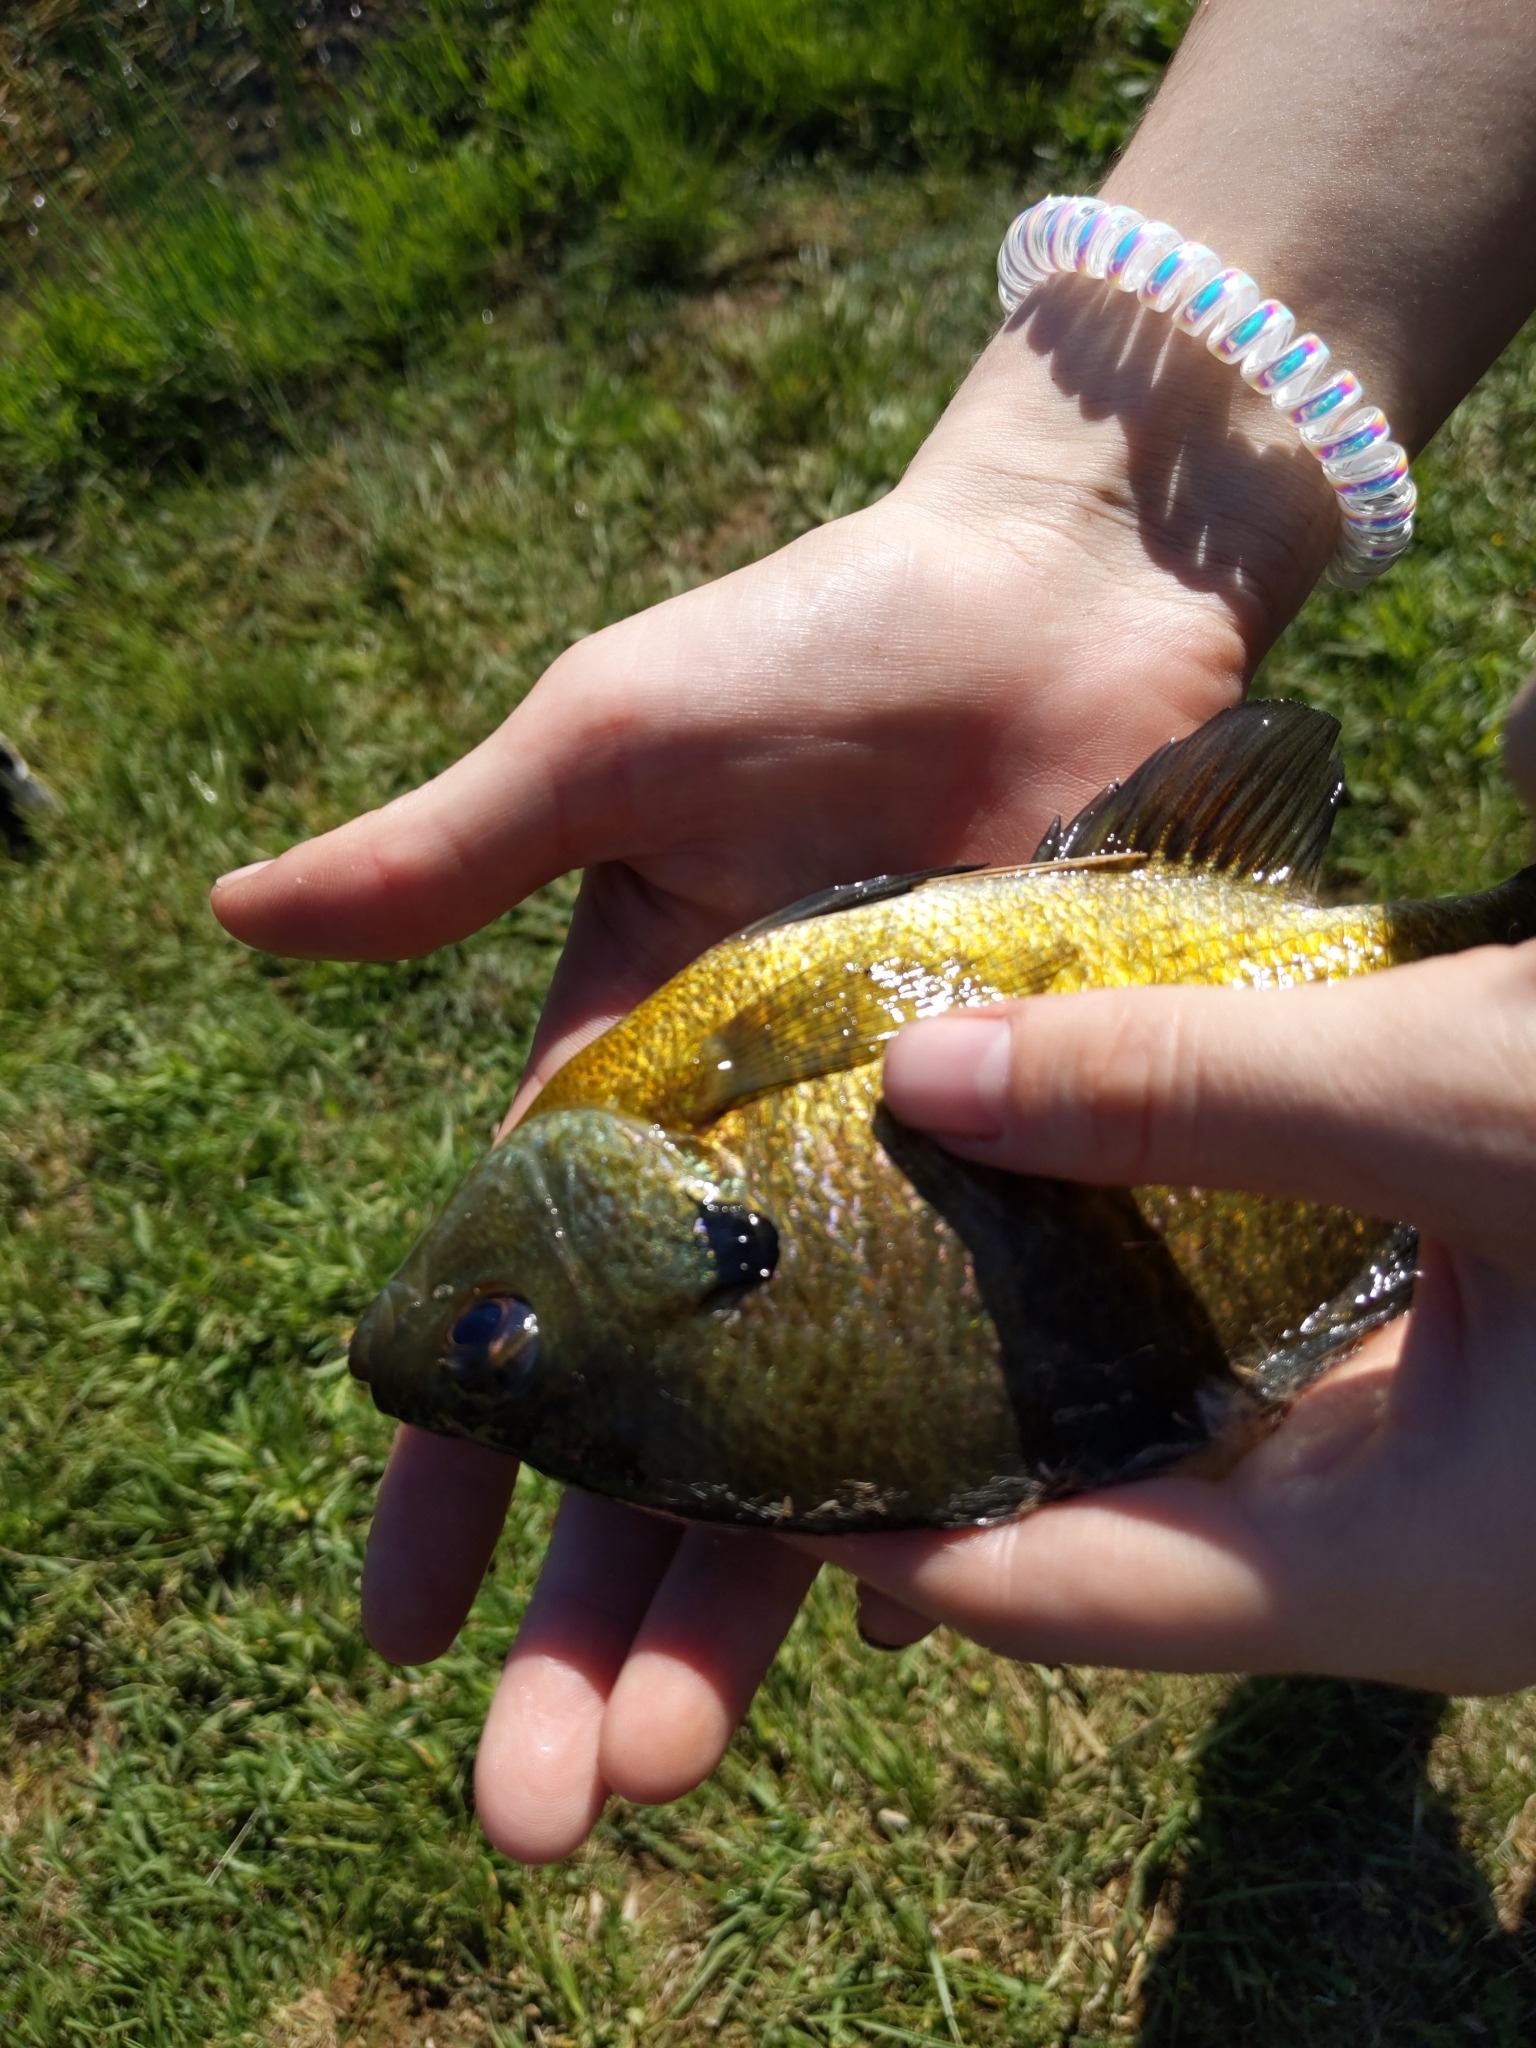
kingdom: Animalia
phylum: Chordata
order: Perciformes
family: Centrarchidae
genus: Lepomis
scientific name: Lepomis macrochirus
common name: Bluegill
